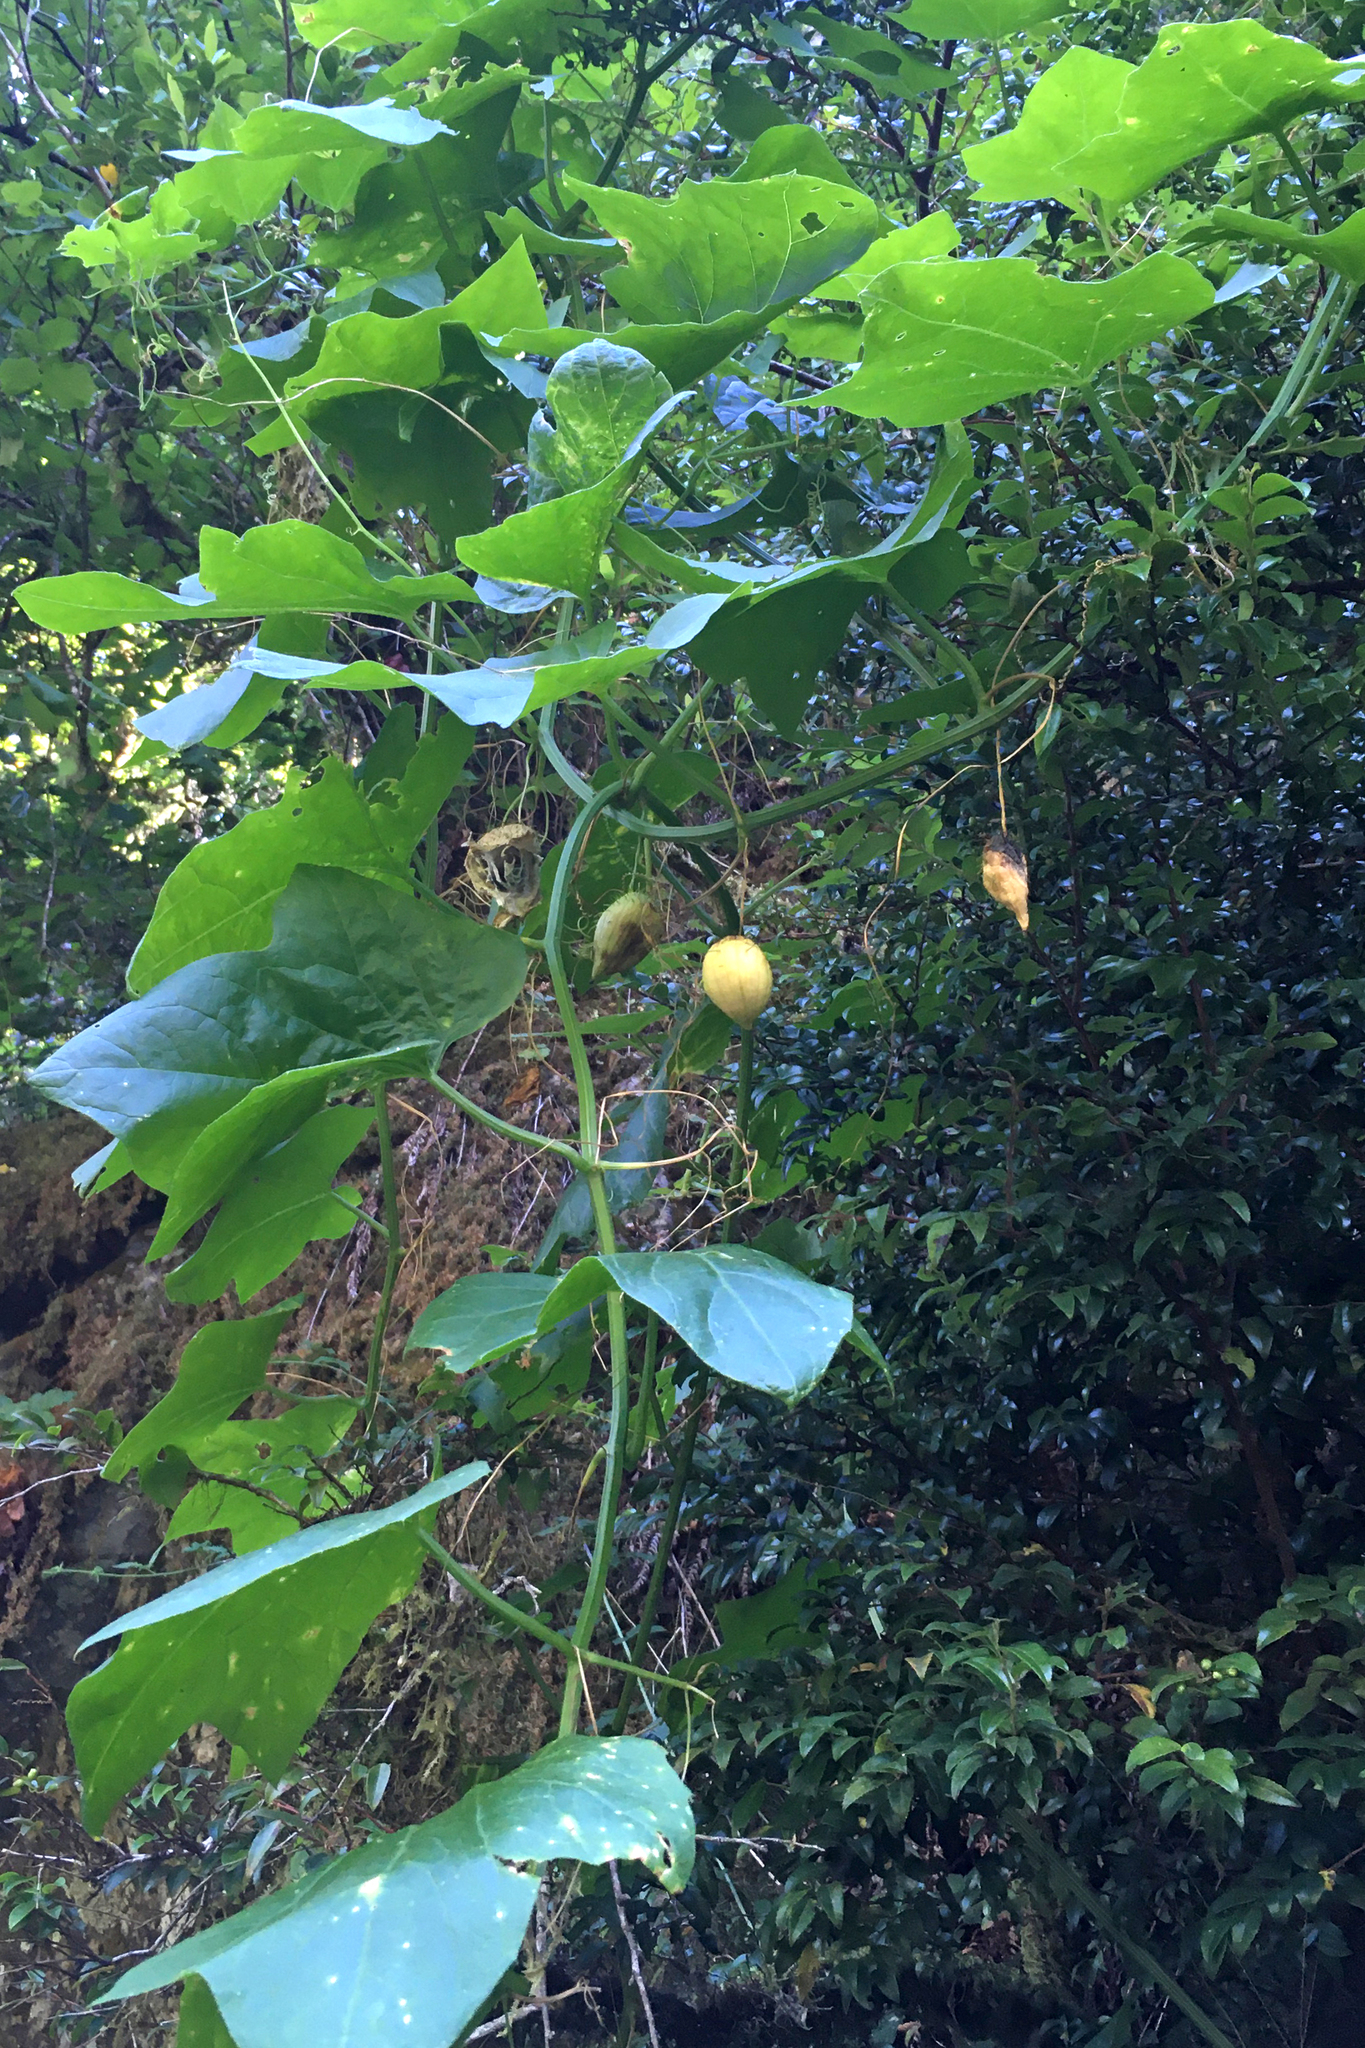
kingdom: Plantae
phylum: Tracheophyta
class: Magnoliopsida
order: Cucurbitales
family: Cucurbitaceae
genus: Marah
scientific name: Marah oregana
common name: Coastal manroot
